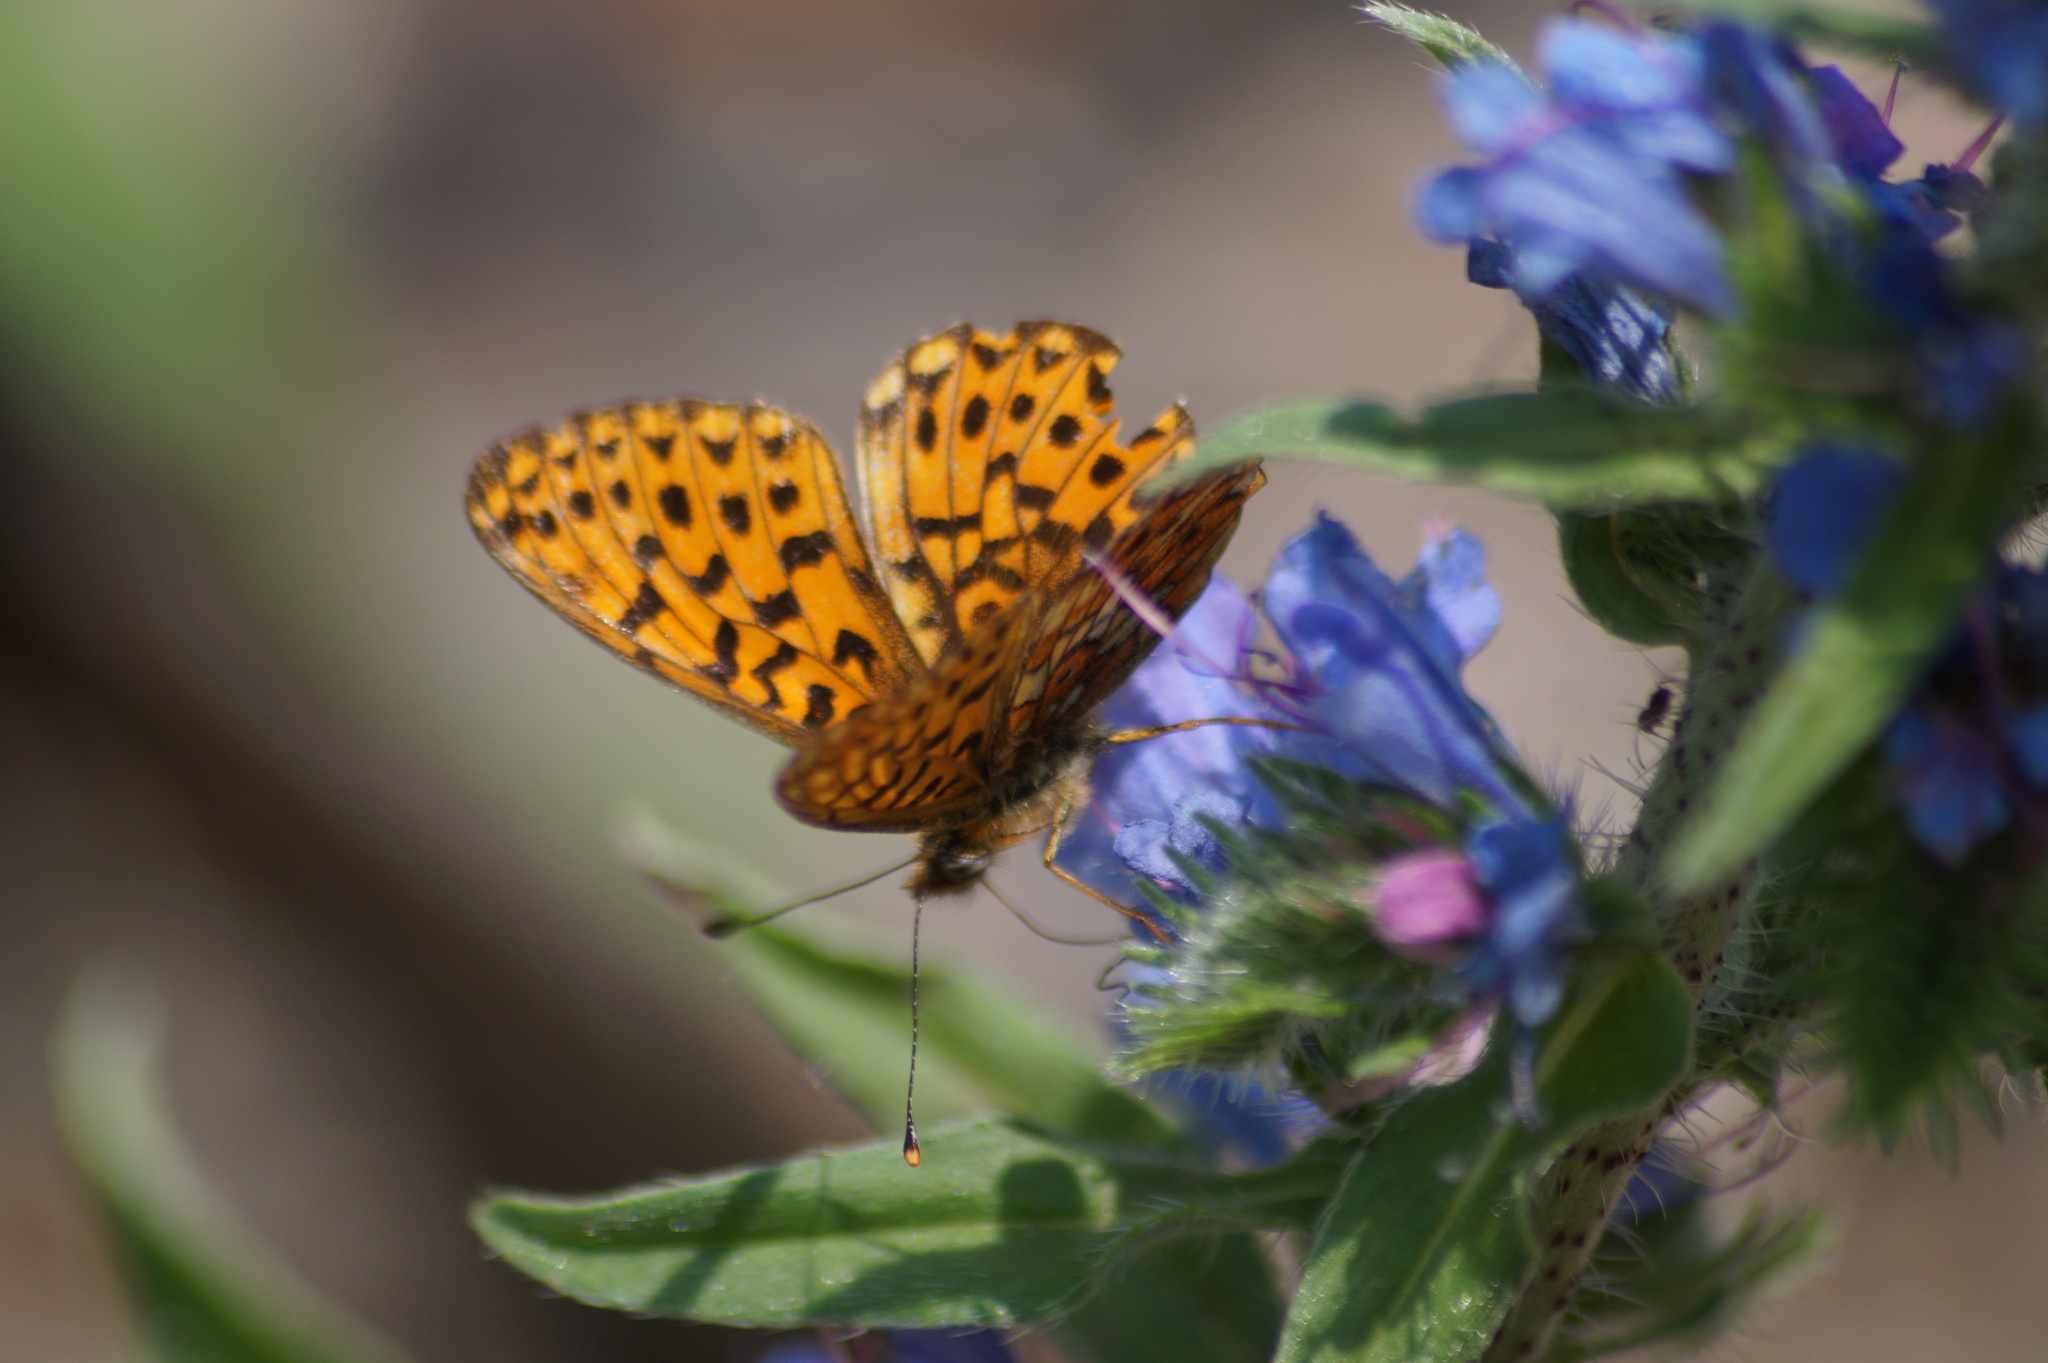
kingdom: Animalia
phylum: Arthropoda
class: Insecta
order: Lepidoptera
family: Nymphalidae
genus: Clossiana
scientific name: Clossiana euphrosyne
